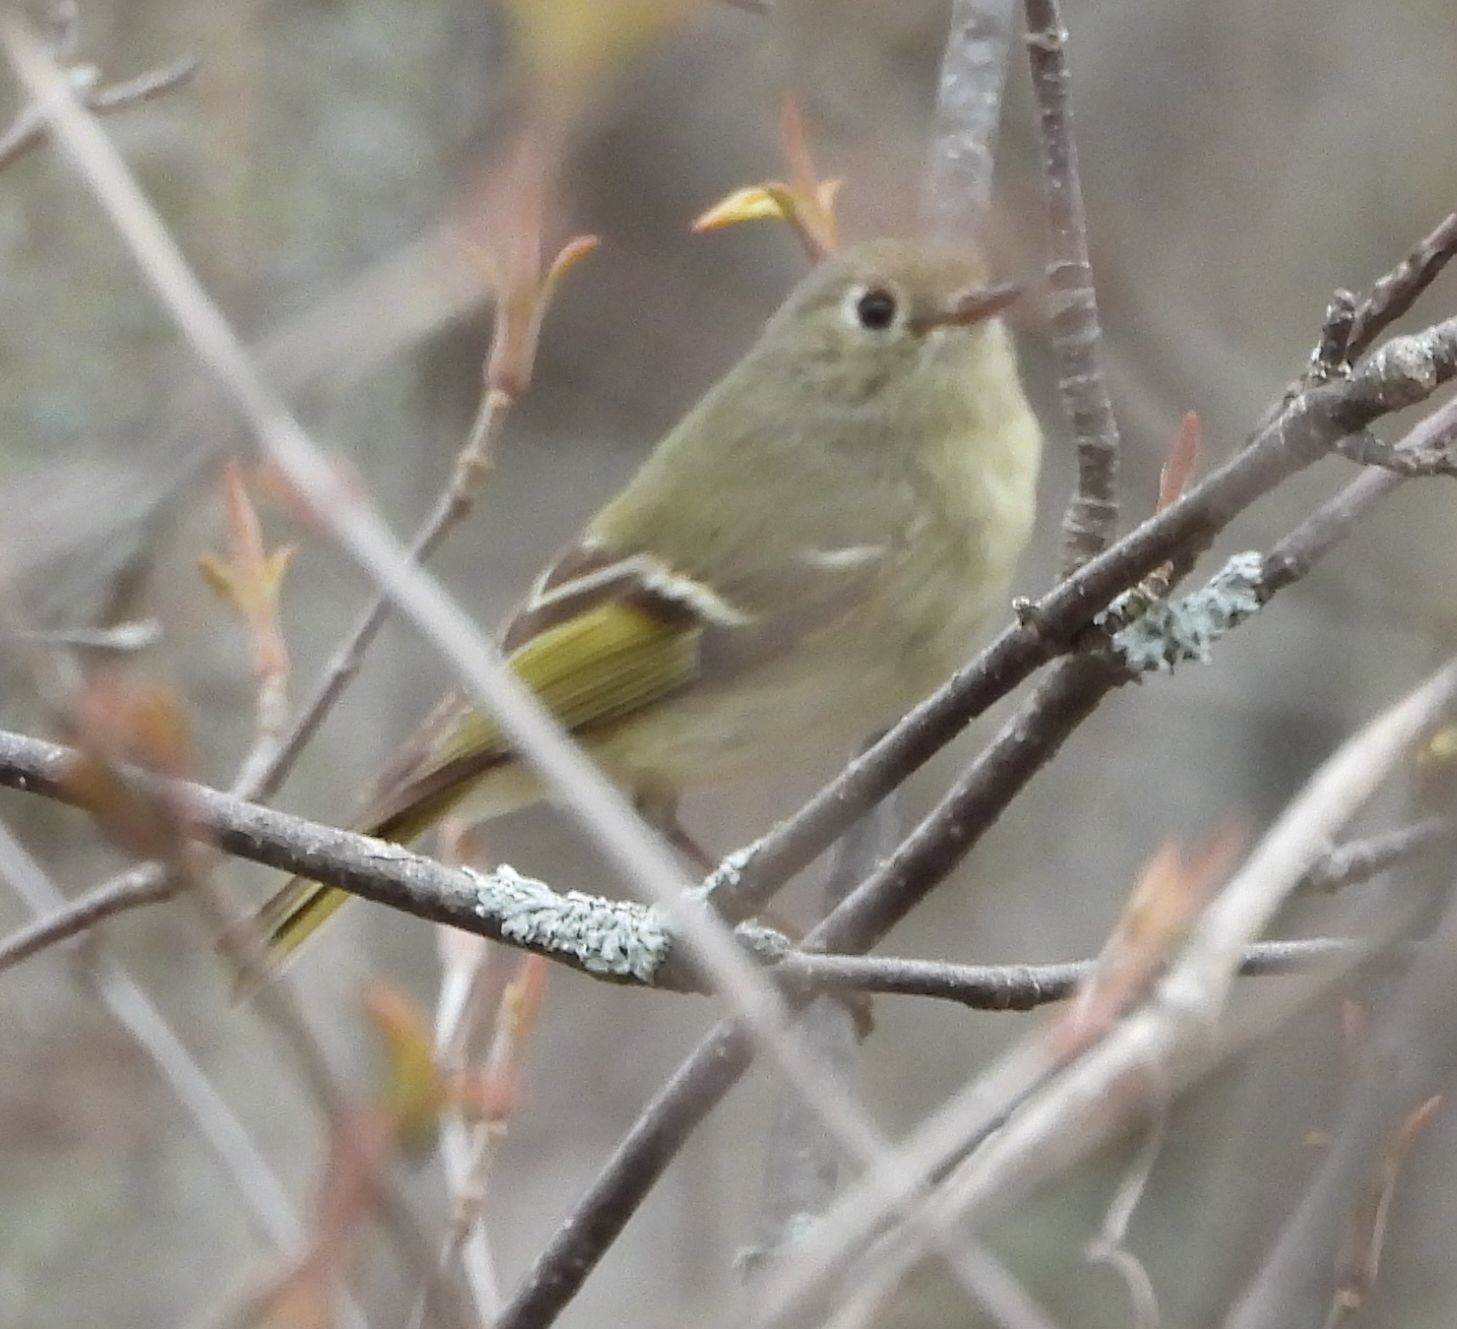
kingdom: Animalia
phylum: Chordata
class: Aves
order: Passeriformes
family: Regulidae
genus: Regulus
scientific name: Regulus calendula
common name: Ruby-crowned kinglet
